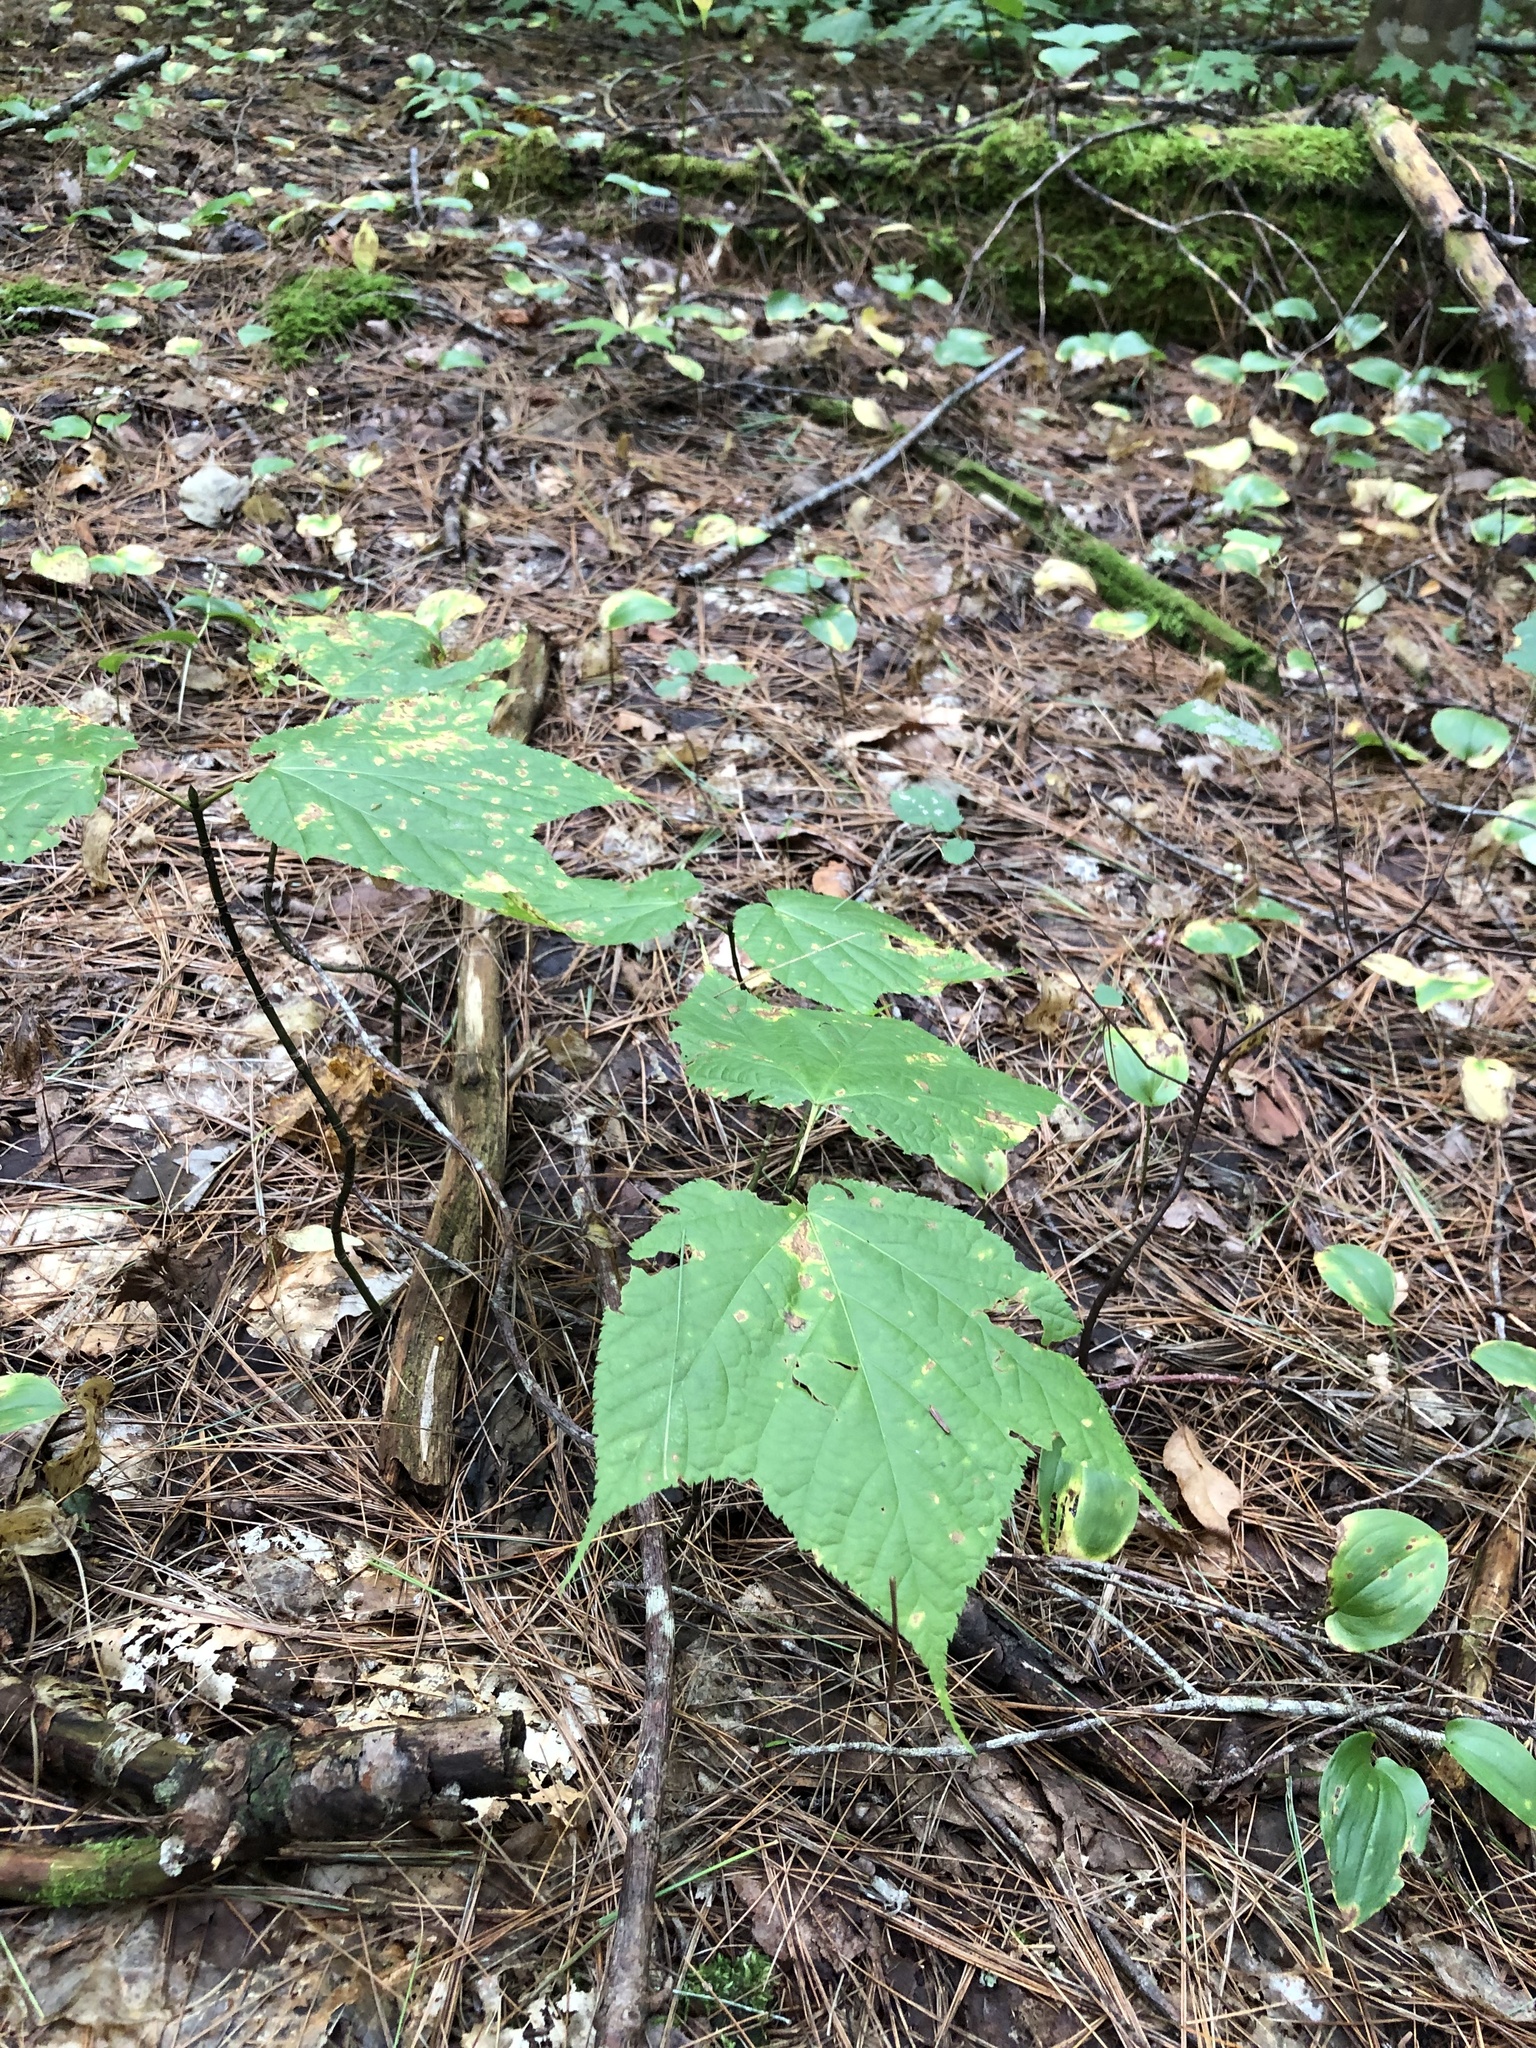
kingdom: Plantae
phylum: Tracheophyta
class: Magnoliopsida
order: Sapindales
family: Sapindaceae
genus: Acer
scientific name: Acer pensylvanicum
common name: Moosewood
